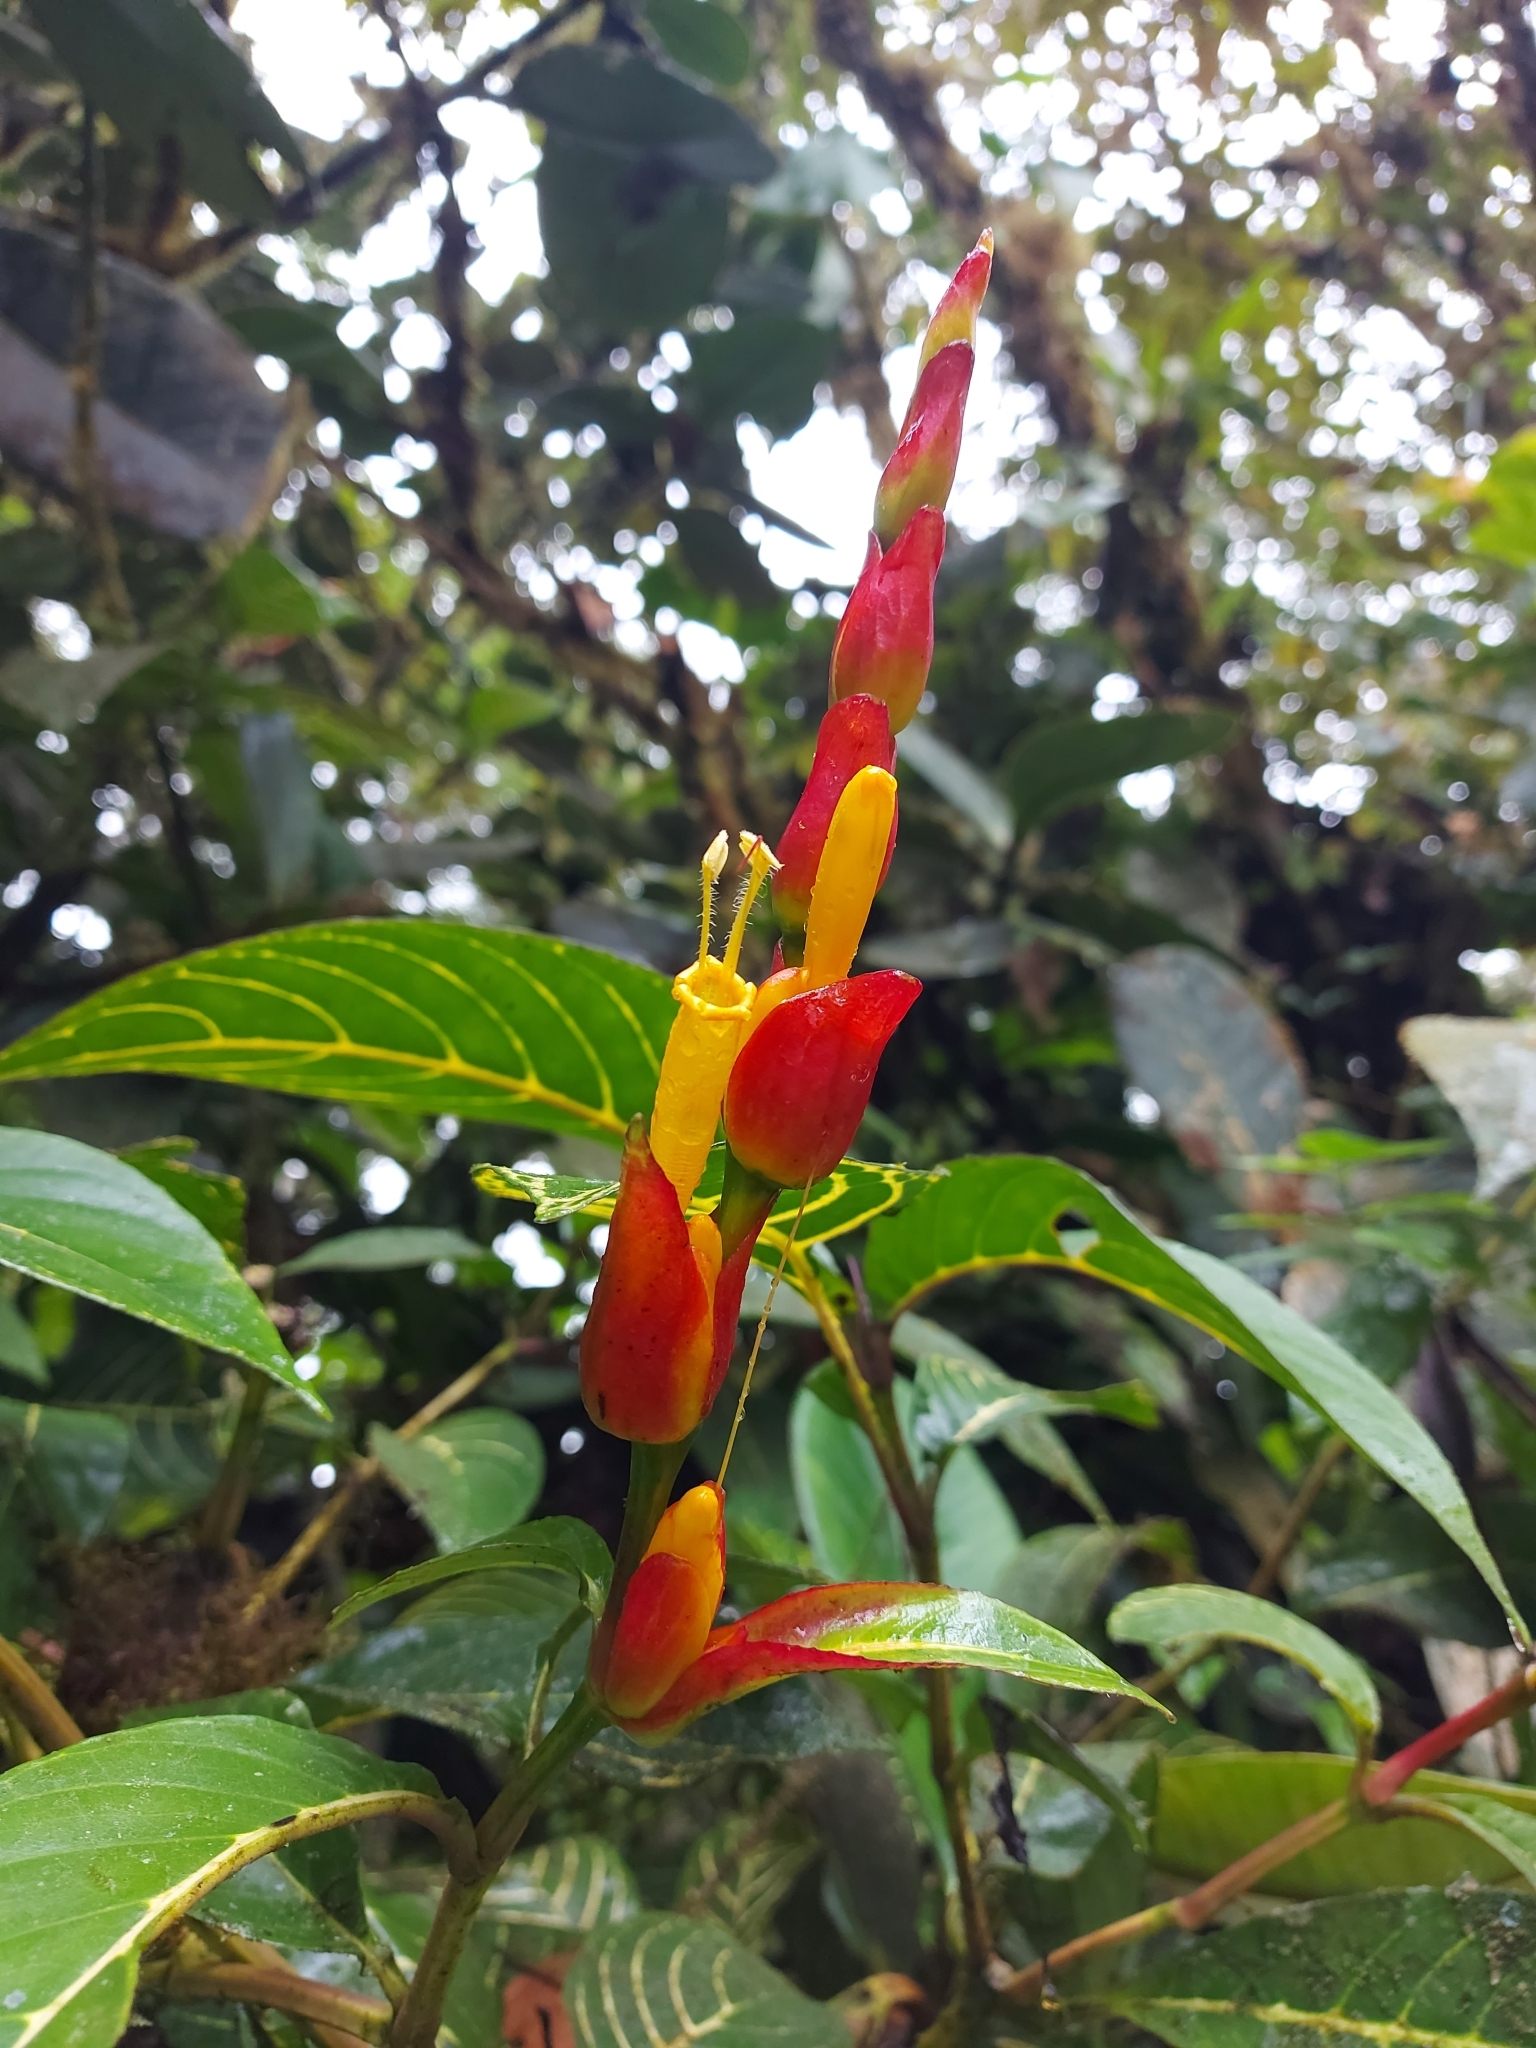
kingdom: Plantae
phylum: Tracheophyta
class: Magnoliopsida
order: Lamiales
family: Acanthaceae
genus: Sanchezia
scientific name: Sanchezia oblonga
